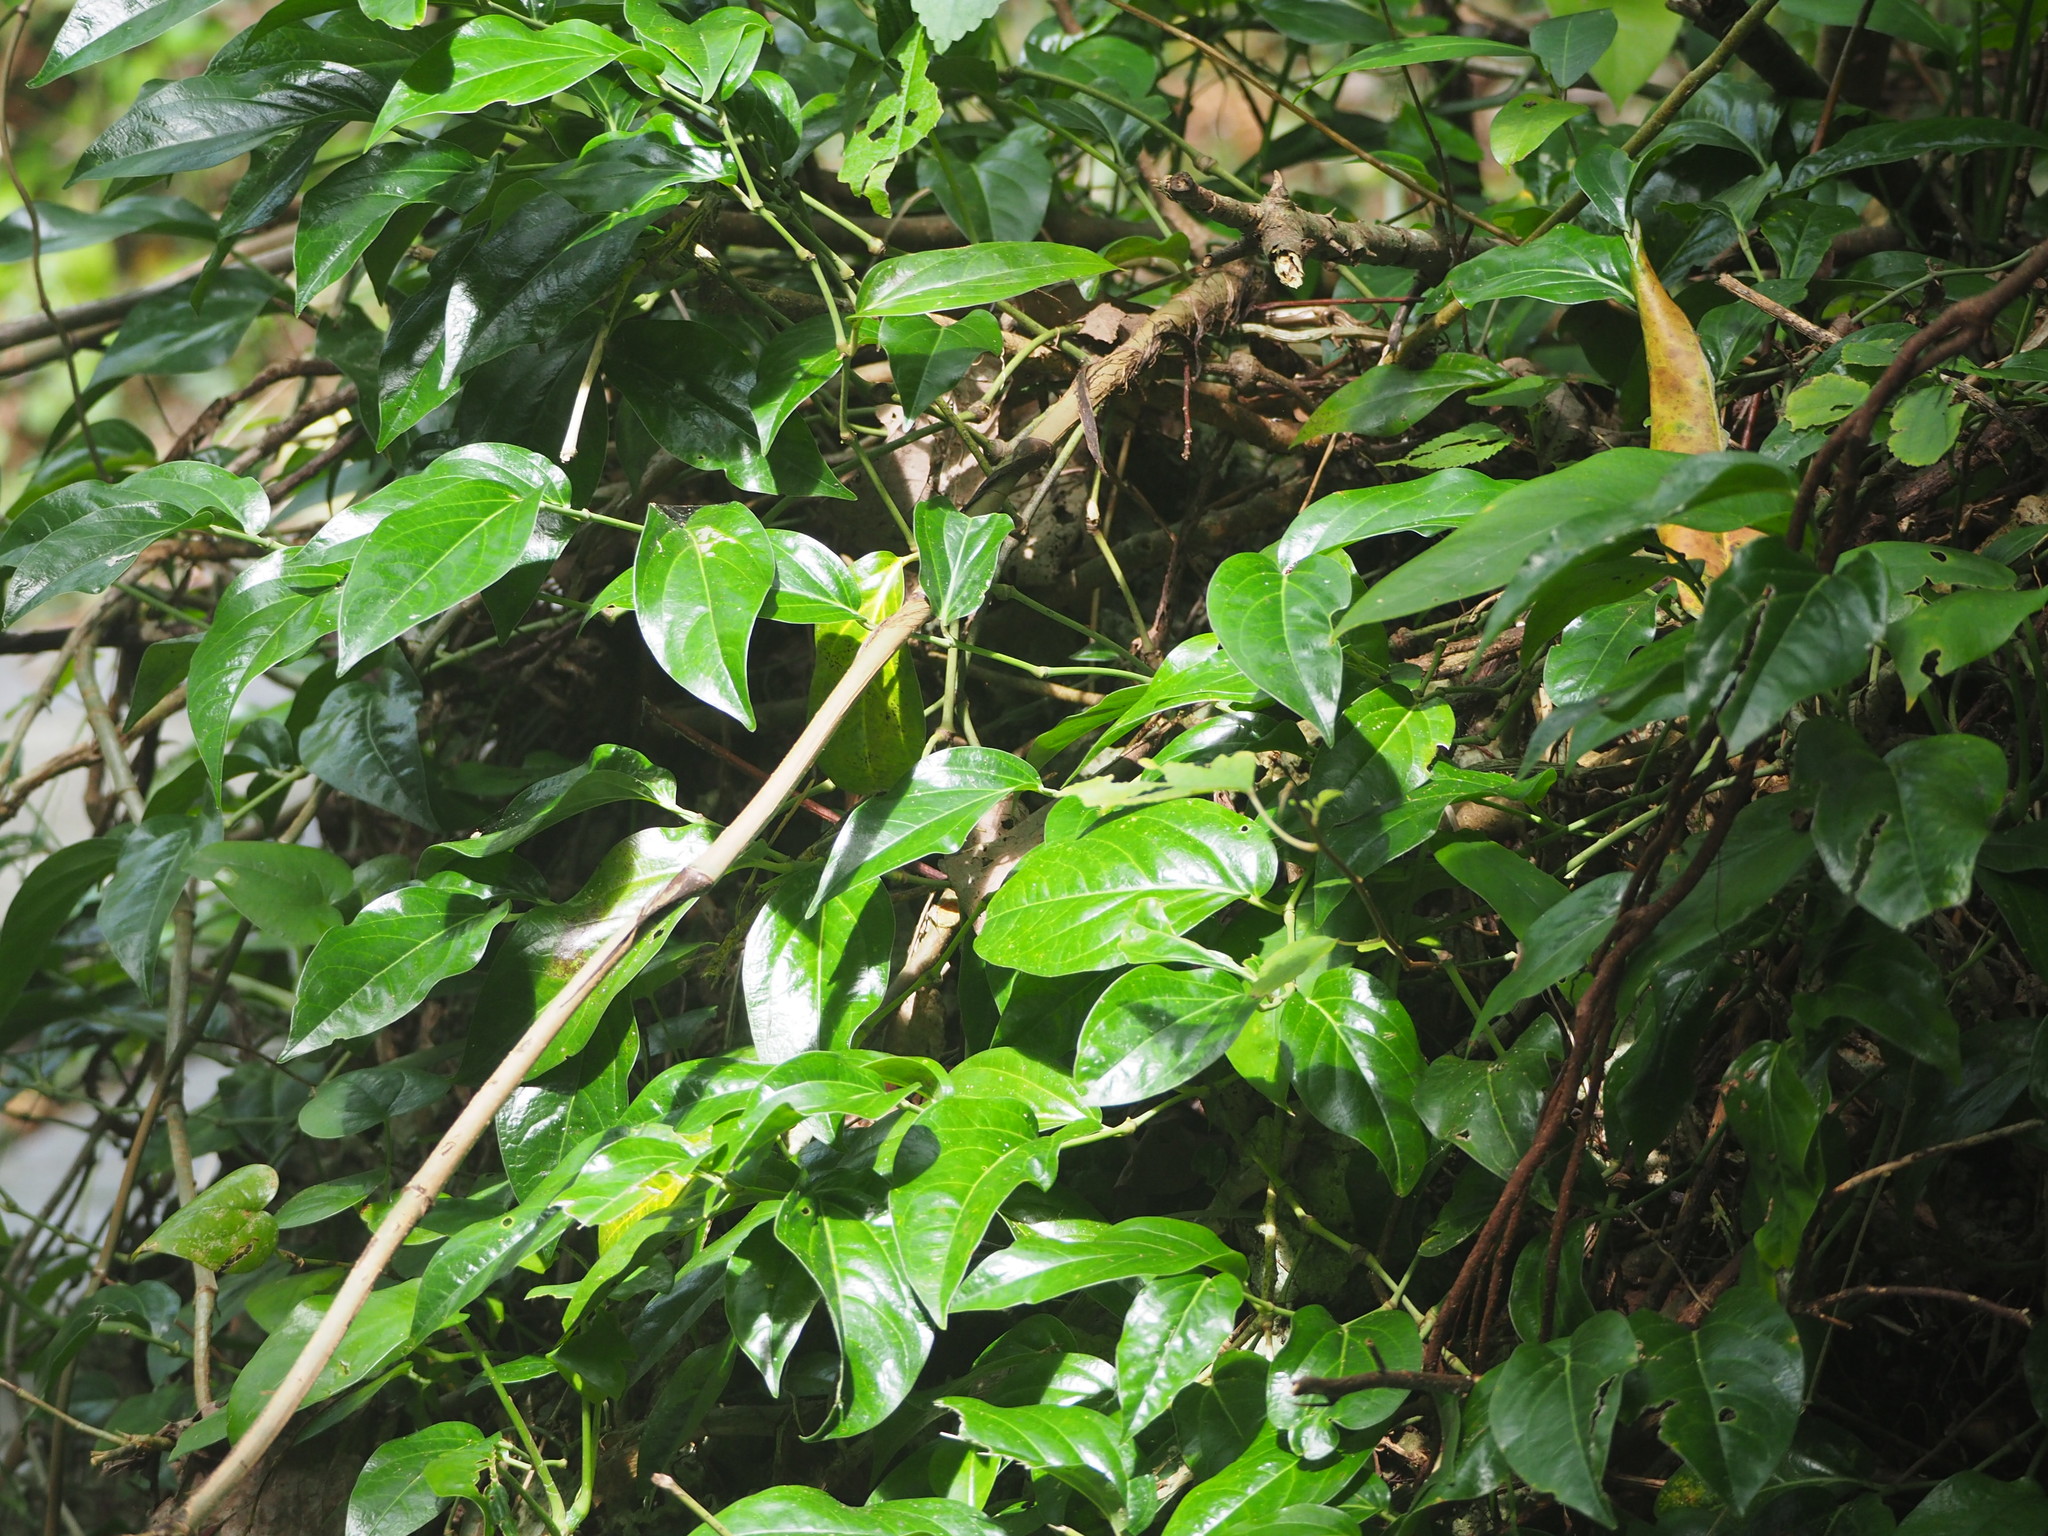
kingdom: Plantae
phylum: Tracheophyta
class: Magnoliopsida
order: Piperales
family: Piperaceae
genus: Piper
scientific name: Piper kawakamii
